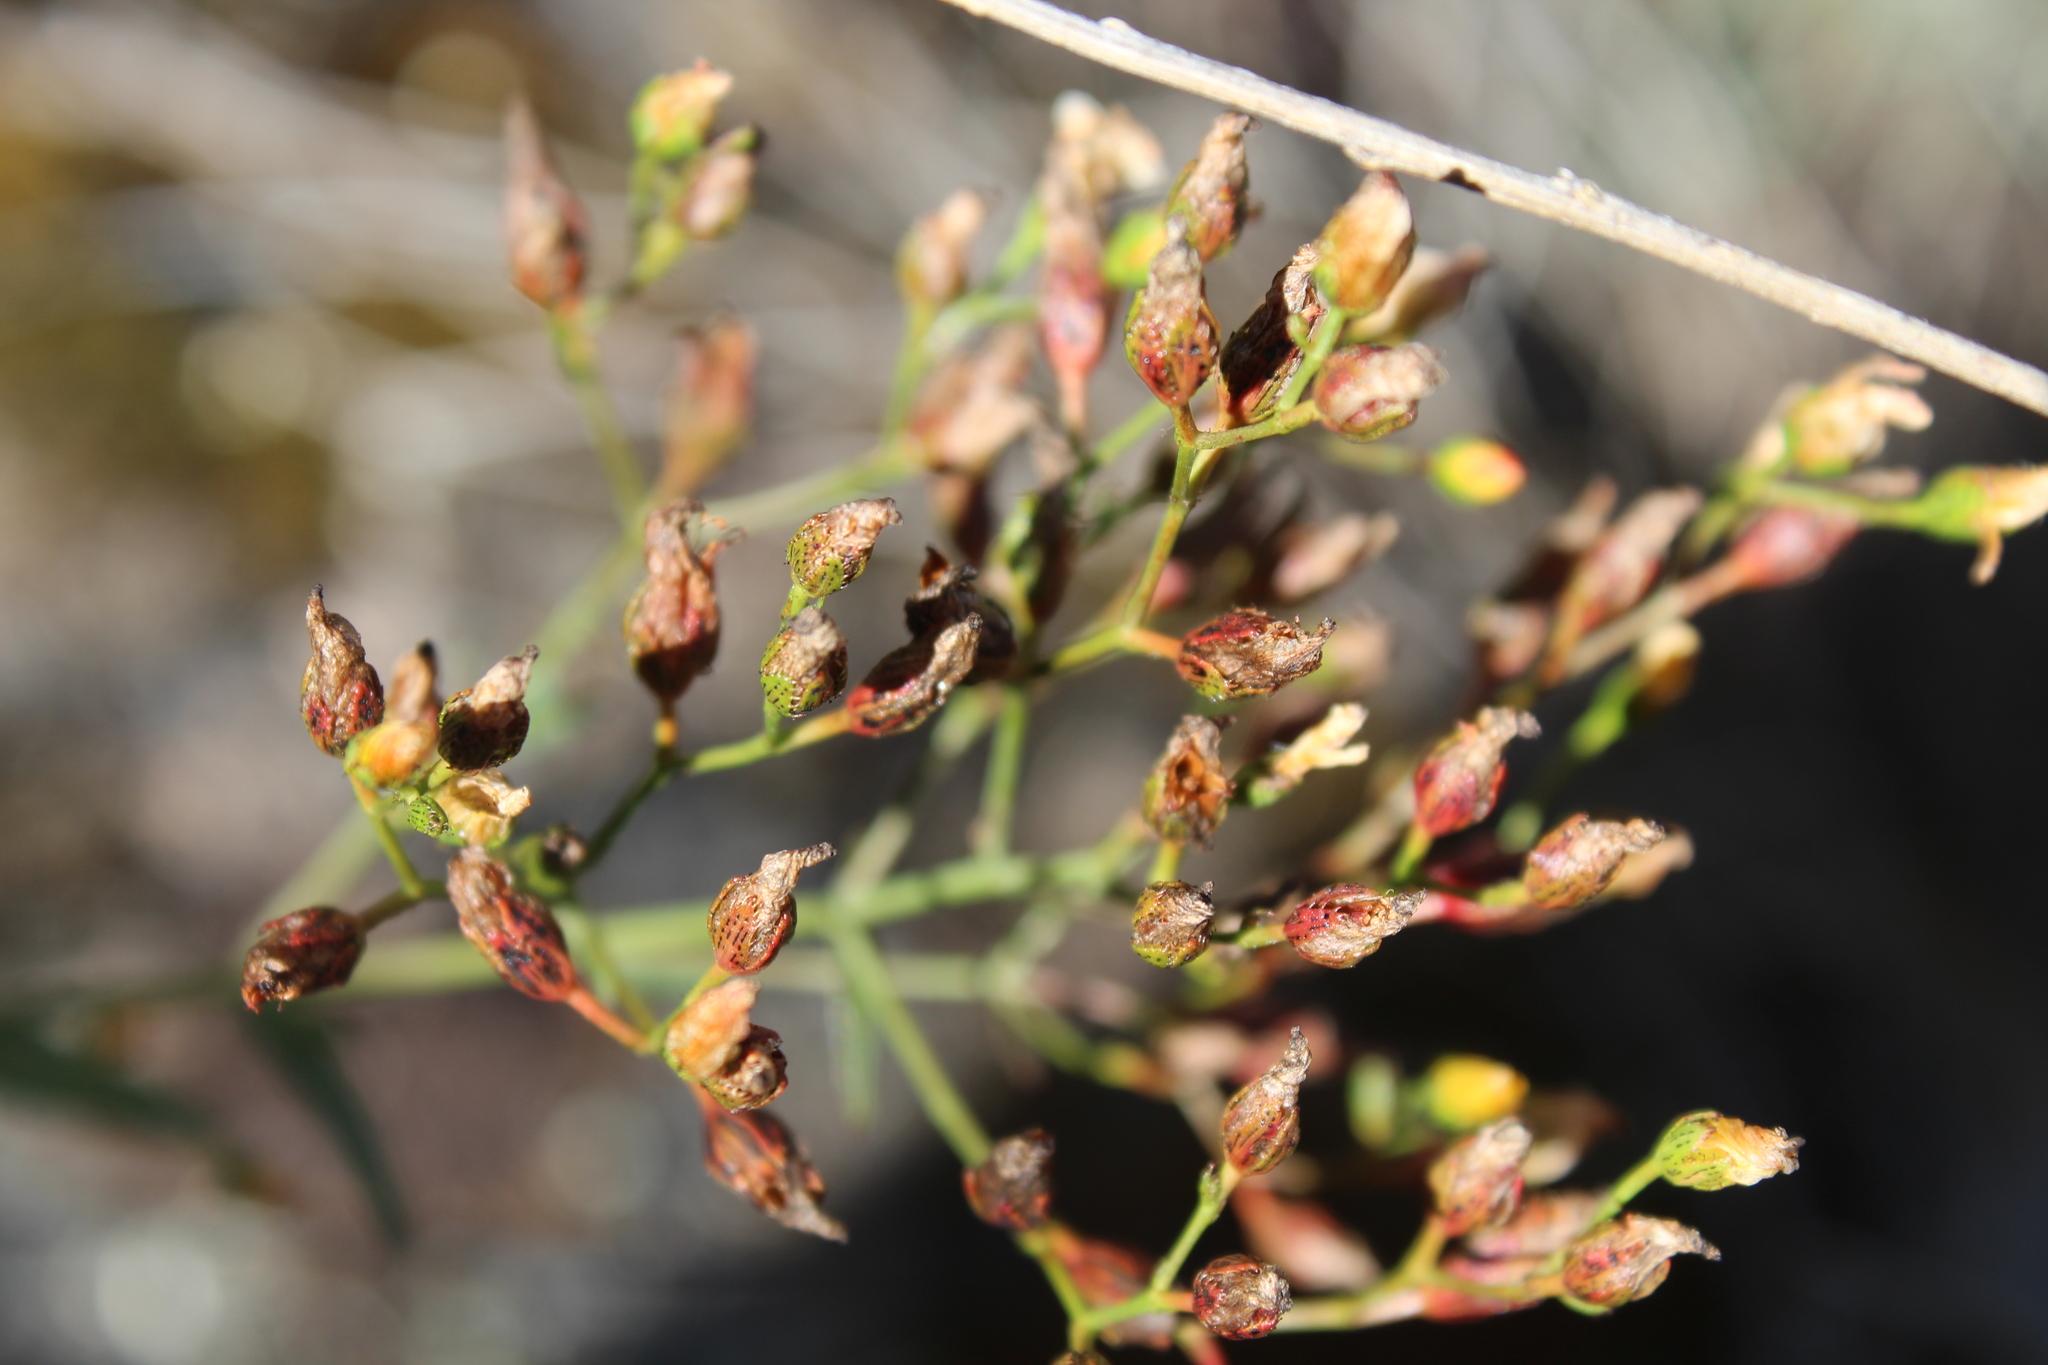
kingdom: Plantae
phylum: Tracheophyta
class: Magnoliopsida
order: Malpighiales
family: Hypericaceae
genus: Hypericum
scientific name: Hypericum linariifolium
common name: Toadflax-leaved st. john's-wort
